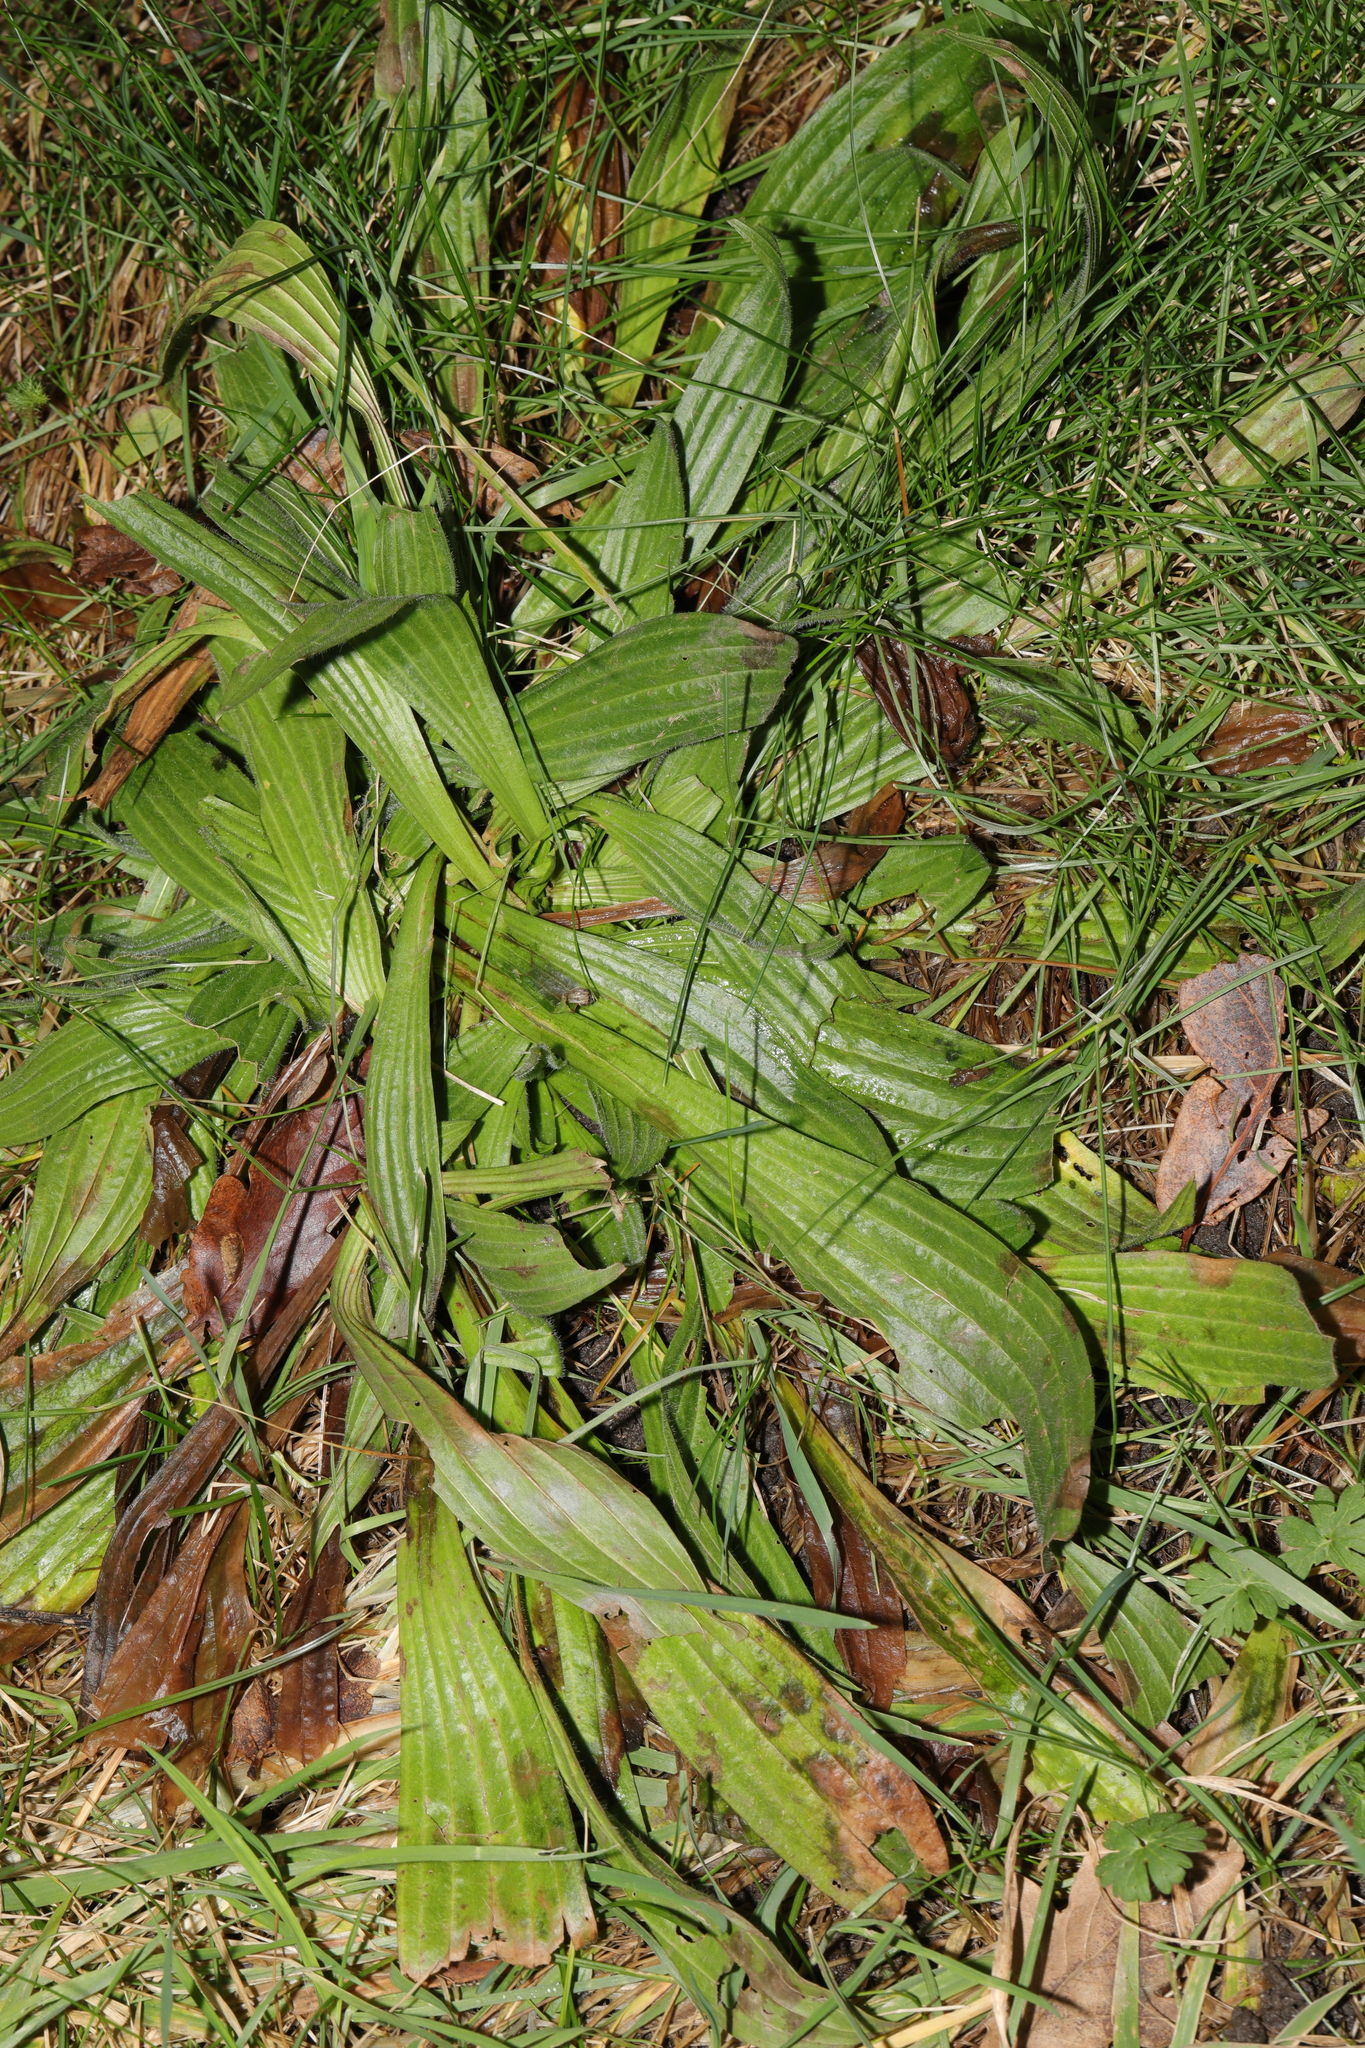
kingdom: Plantae
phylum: Tracheophyta
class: Magnoliopsida
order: Lamiales
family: Plantaginaceae
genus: Plantago
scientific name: Plantago lanceolata
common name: Ribwort plantain
